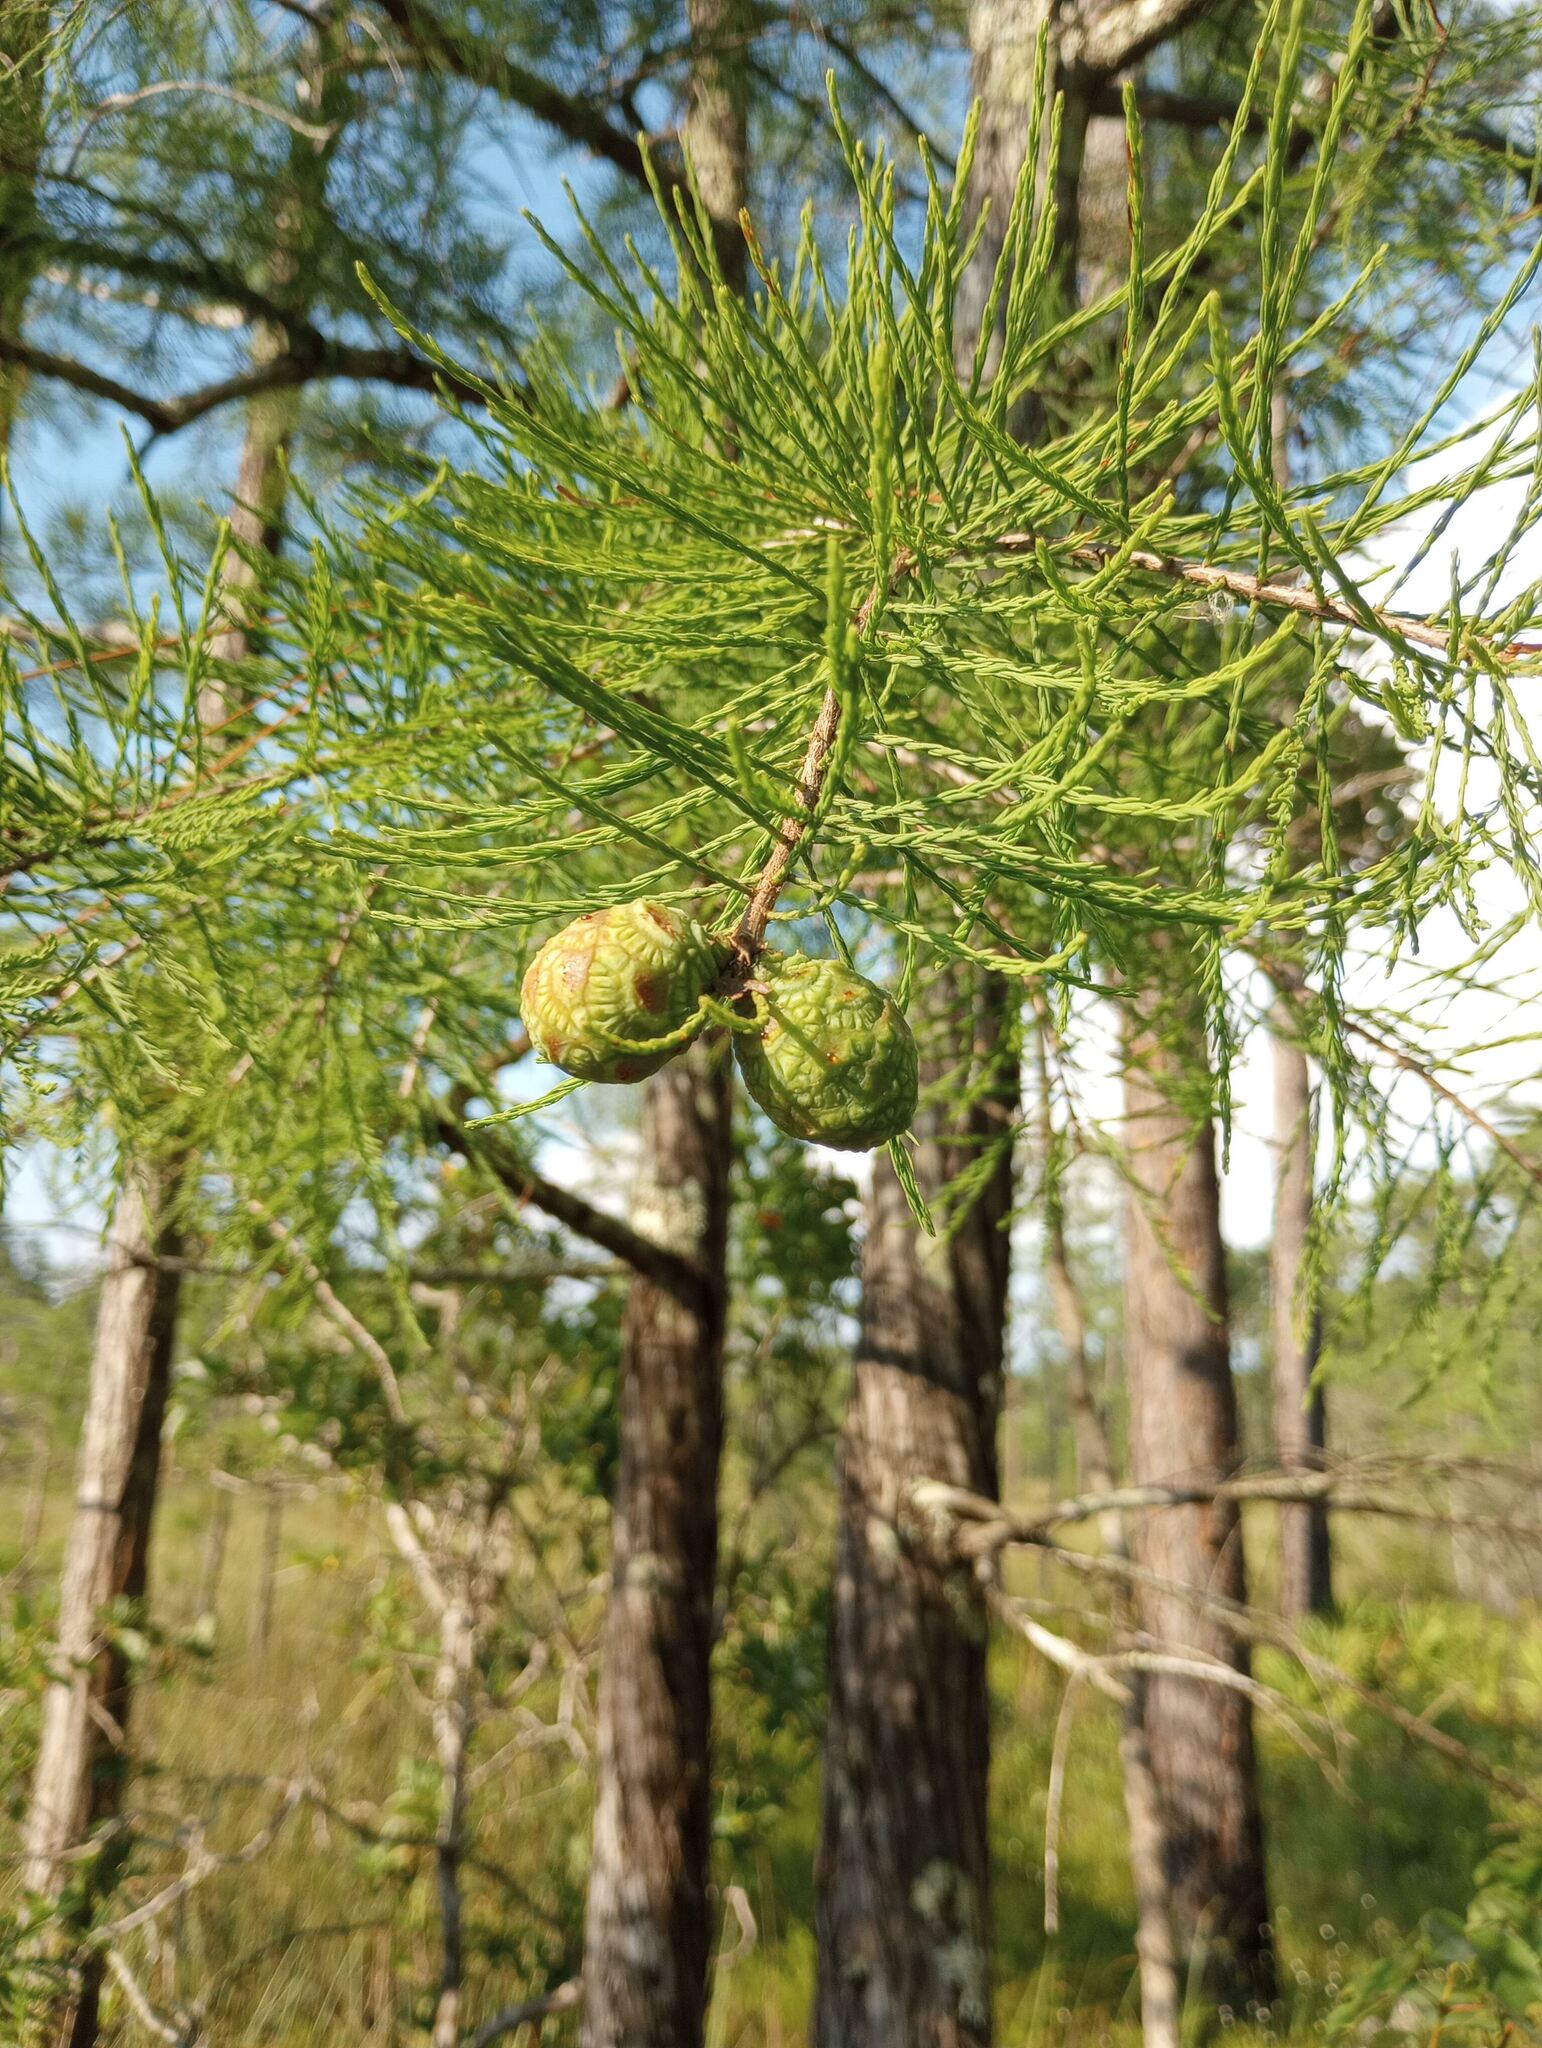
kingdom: Plantae
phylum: Tracheophyta
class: Pinopsida
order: Pinales
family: Cupressaceae
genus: Taxodium
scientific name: Taxodium distichum
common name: Bald cypress
